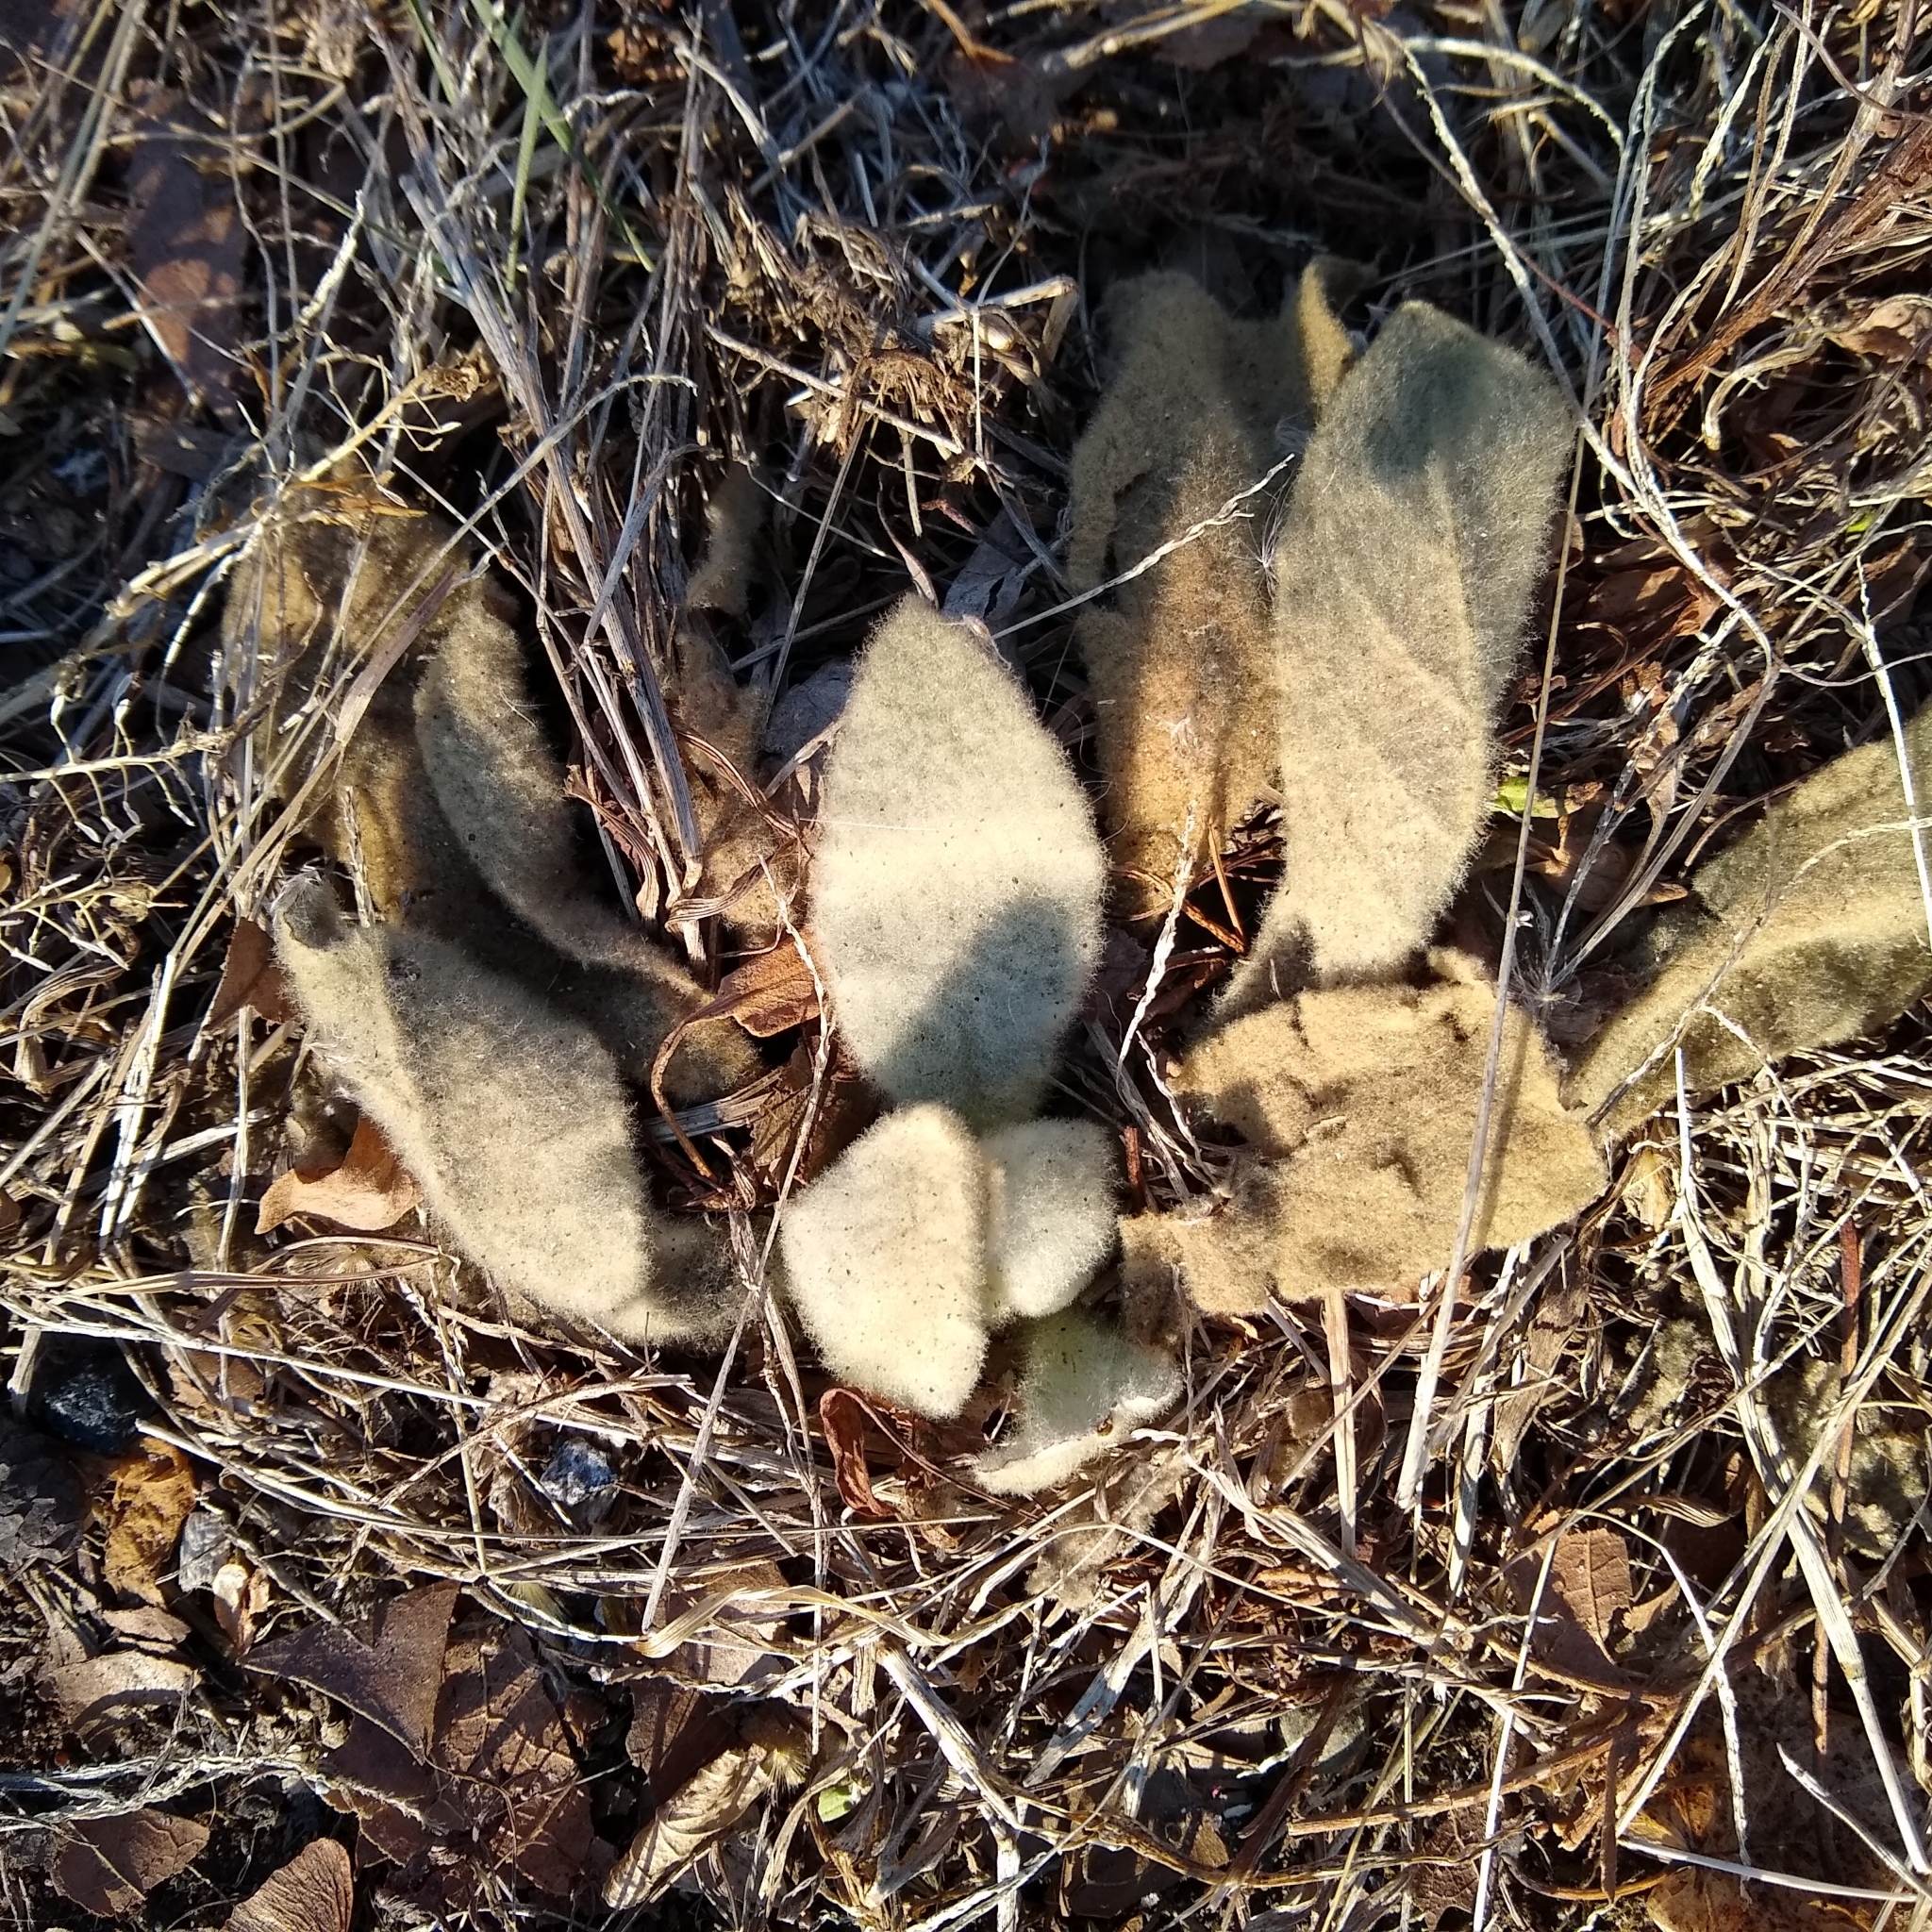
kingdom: Plantae
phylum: Tracheophyta
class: Magnoliopsida
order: Lamiales
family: Scrophulariaceae
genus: Verbascum
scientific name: Verbascum thapsus
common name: Common mullein
